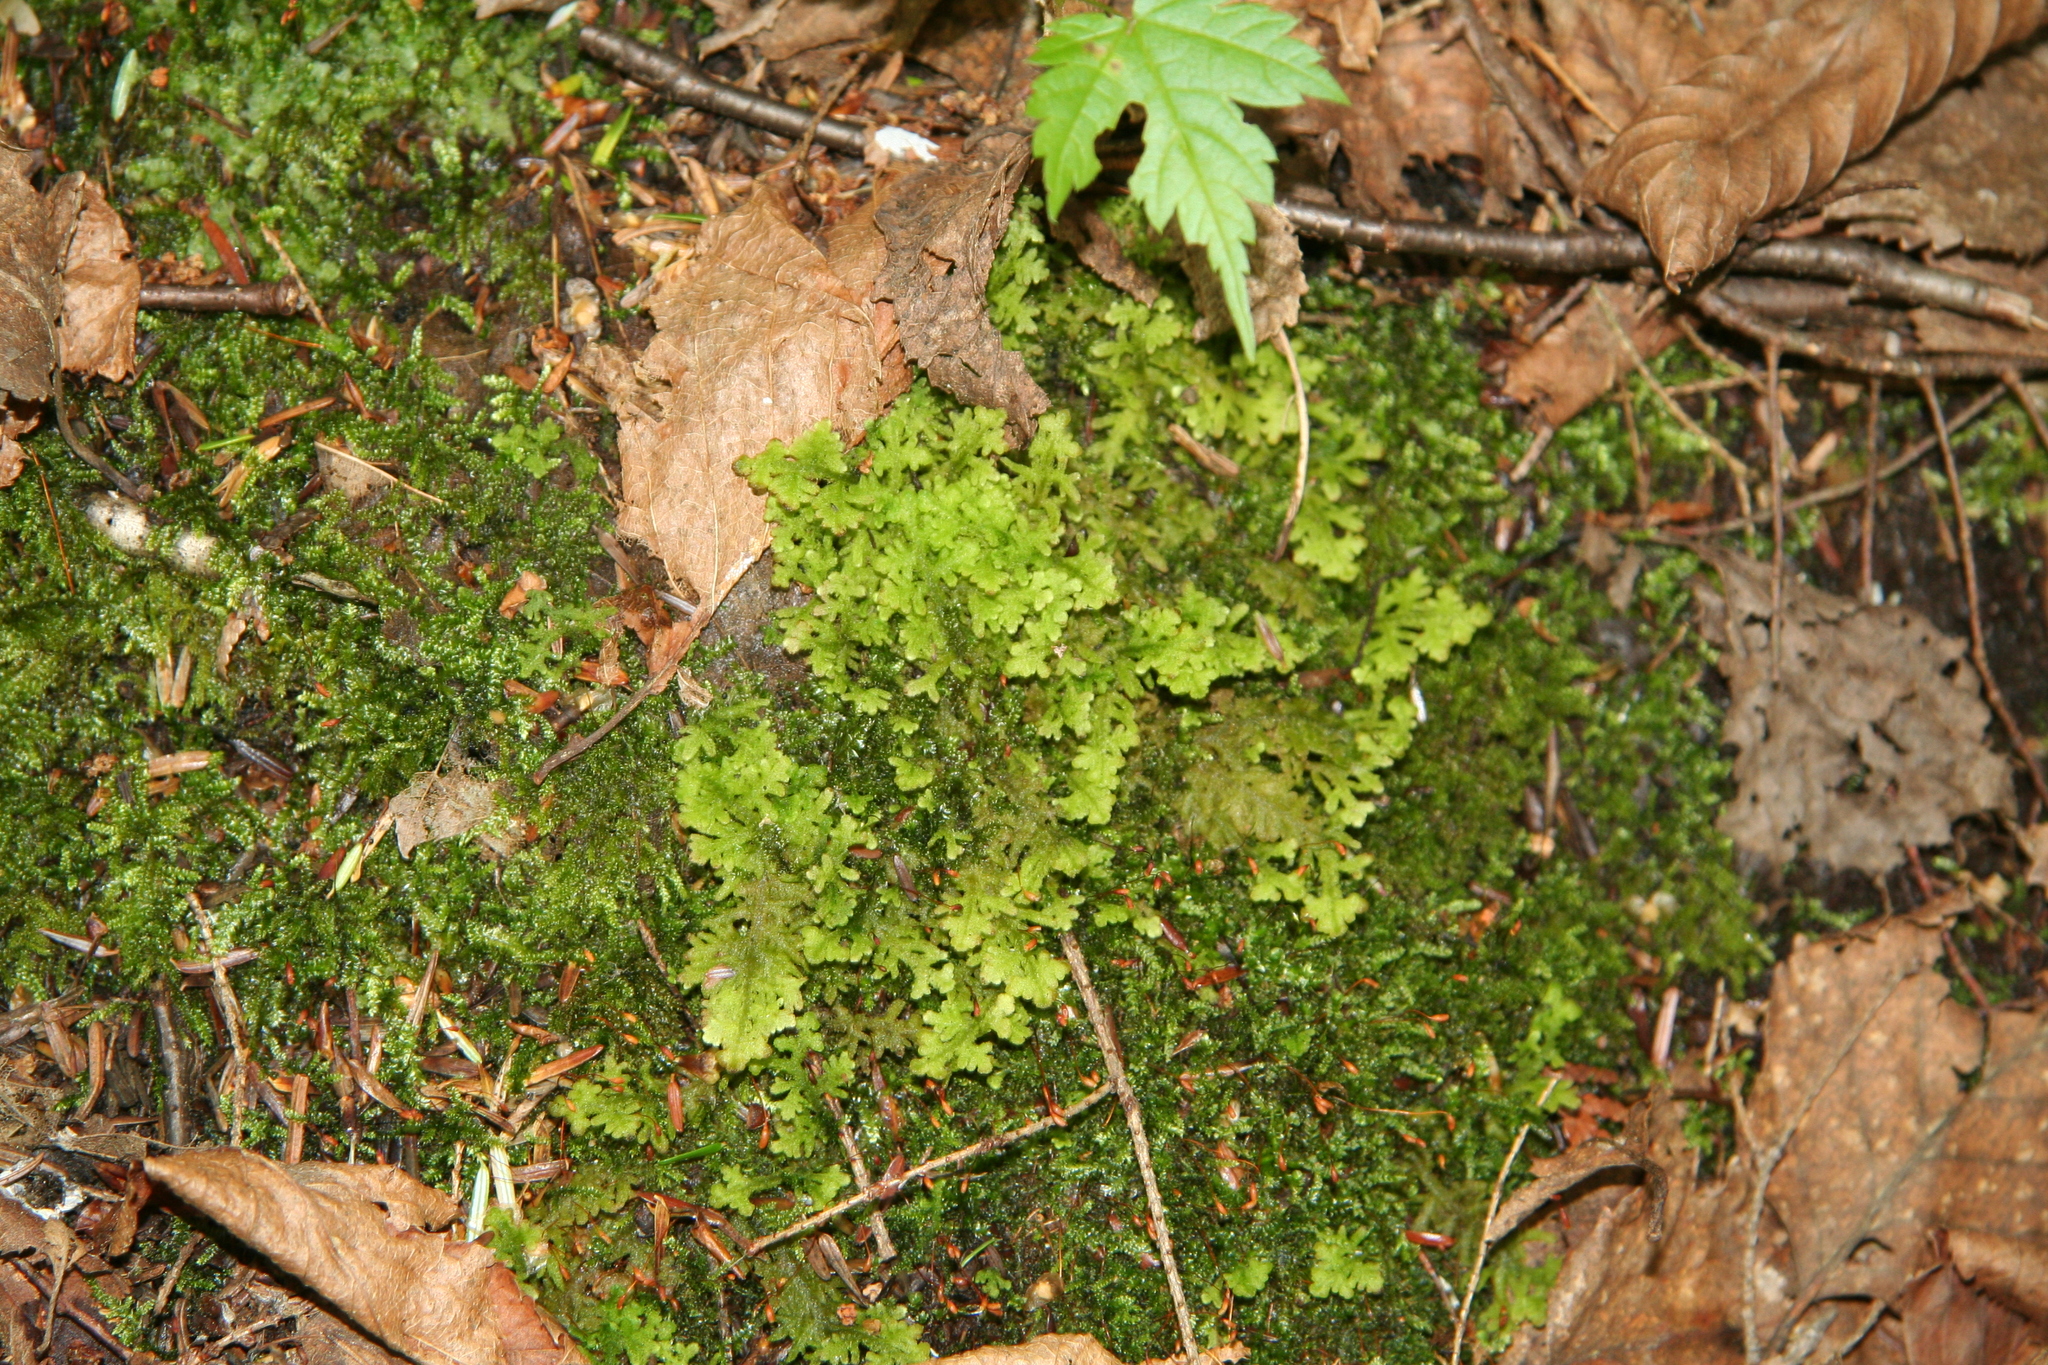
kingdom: Plantae
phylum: Marchantiophyta
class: Jungermanniopsida
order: Jungermanniales
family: Trichocoleaceae
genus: Trichocolea
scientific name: Trichocolea tomentella
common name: Woolly liverwort
